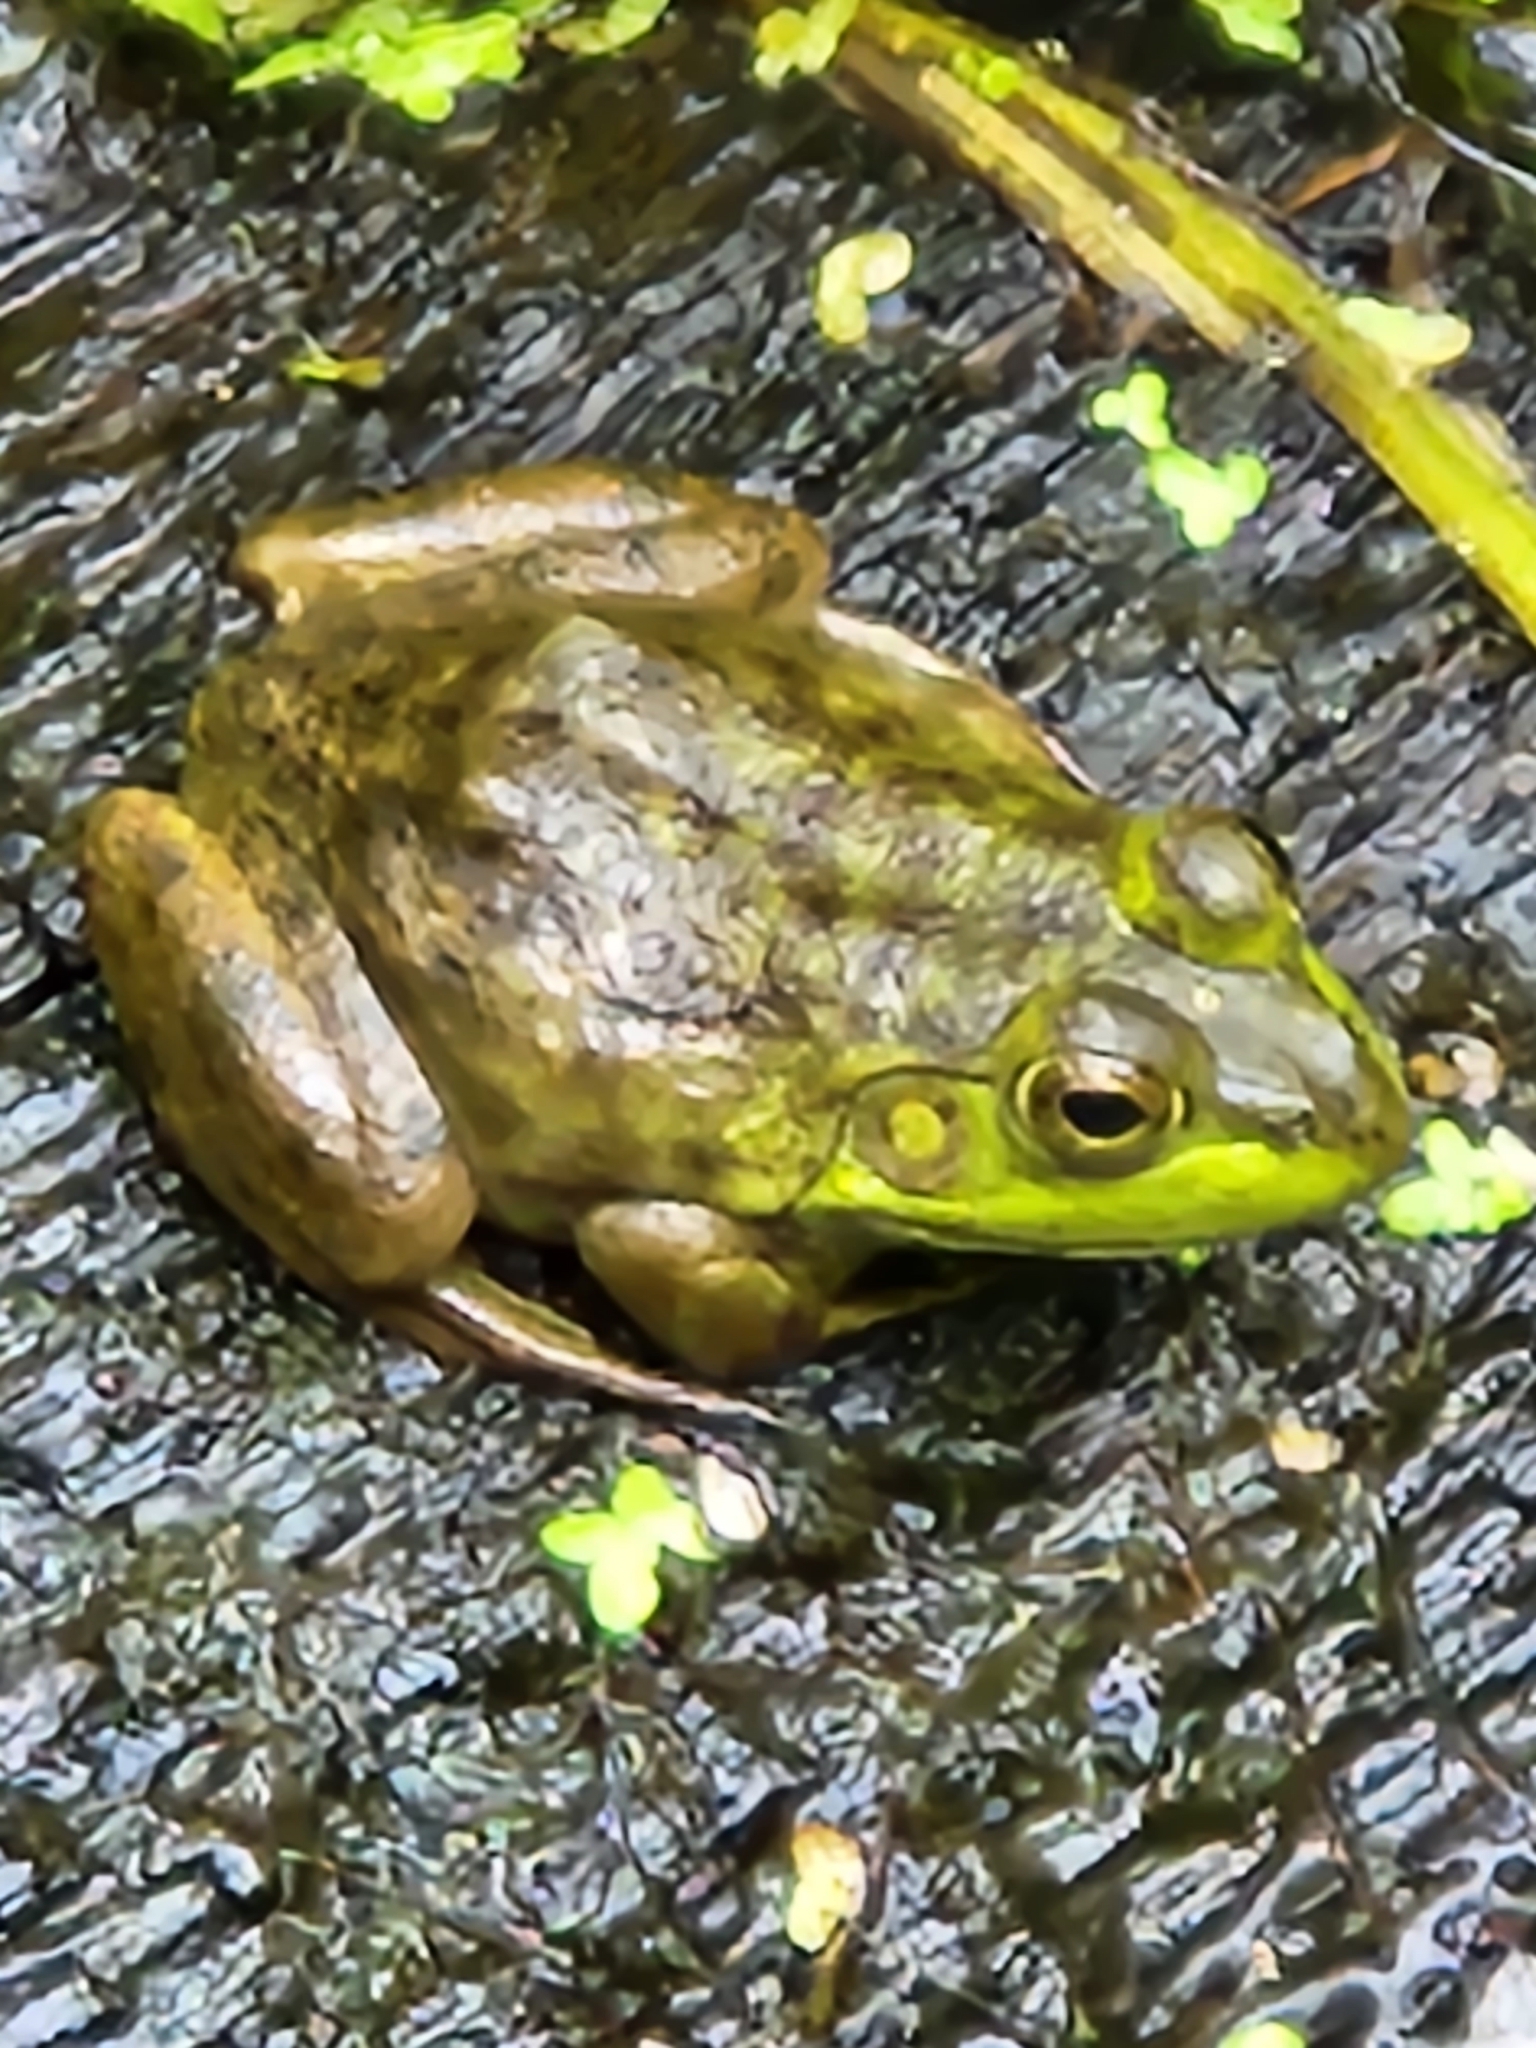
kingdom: Animalia
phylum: Chordata
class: Amphibia
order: Anura
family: Ranidae
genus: Lithobates
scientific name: Lithobates catesbeianus
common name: American bullfrog
